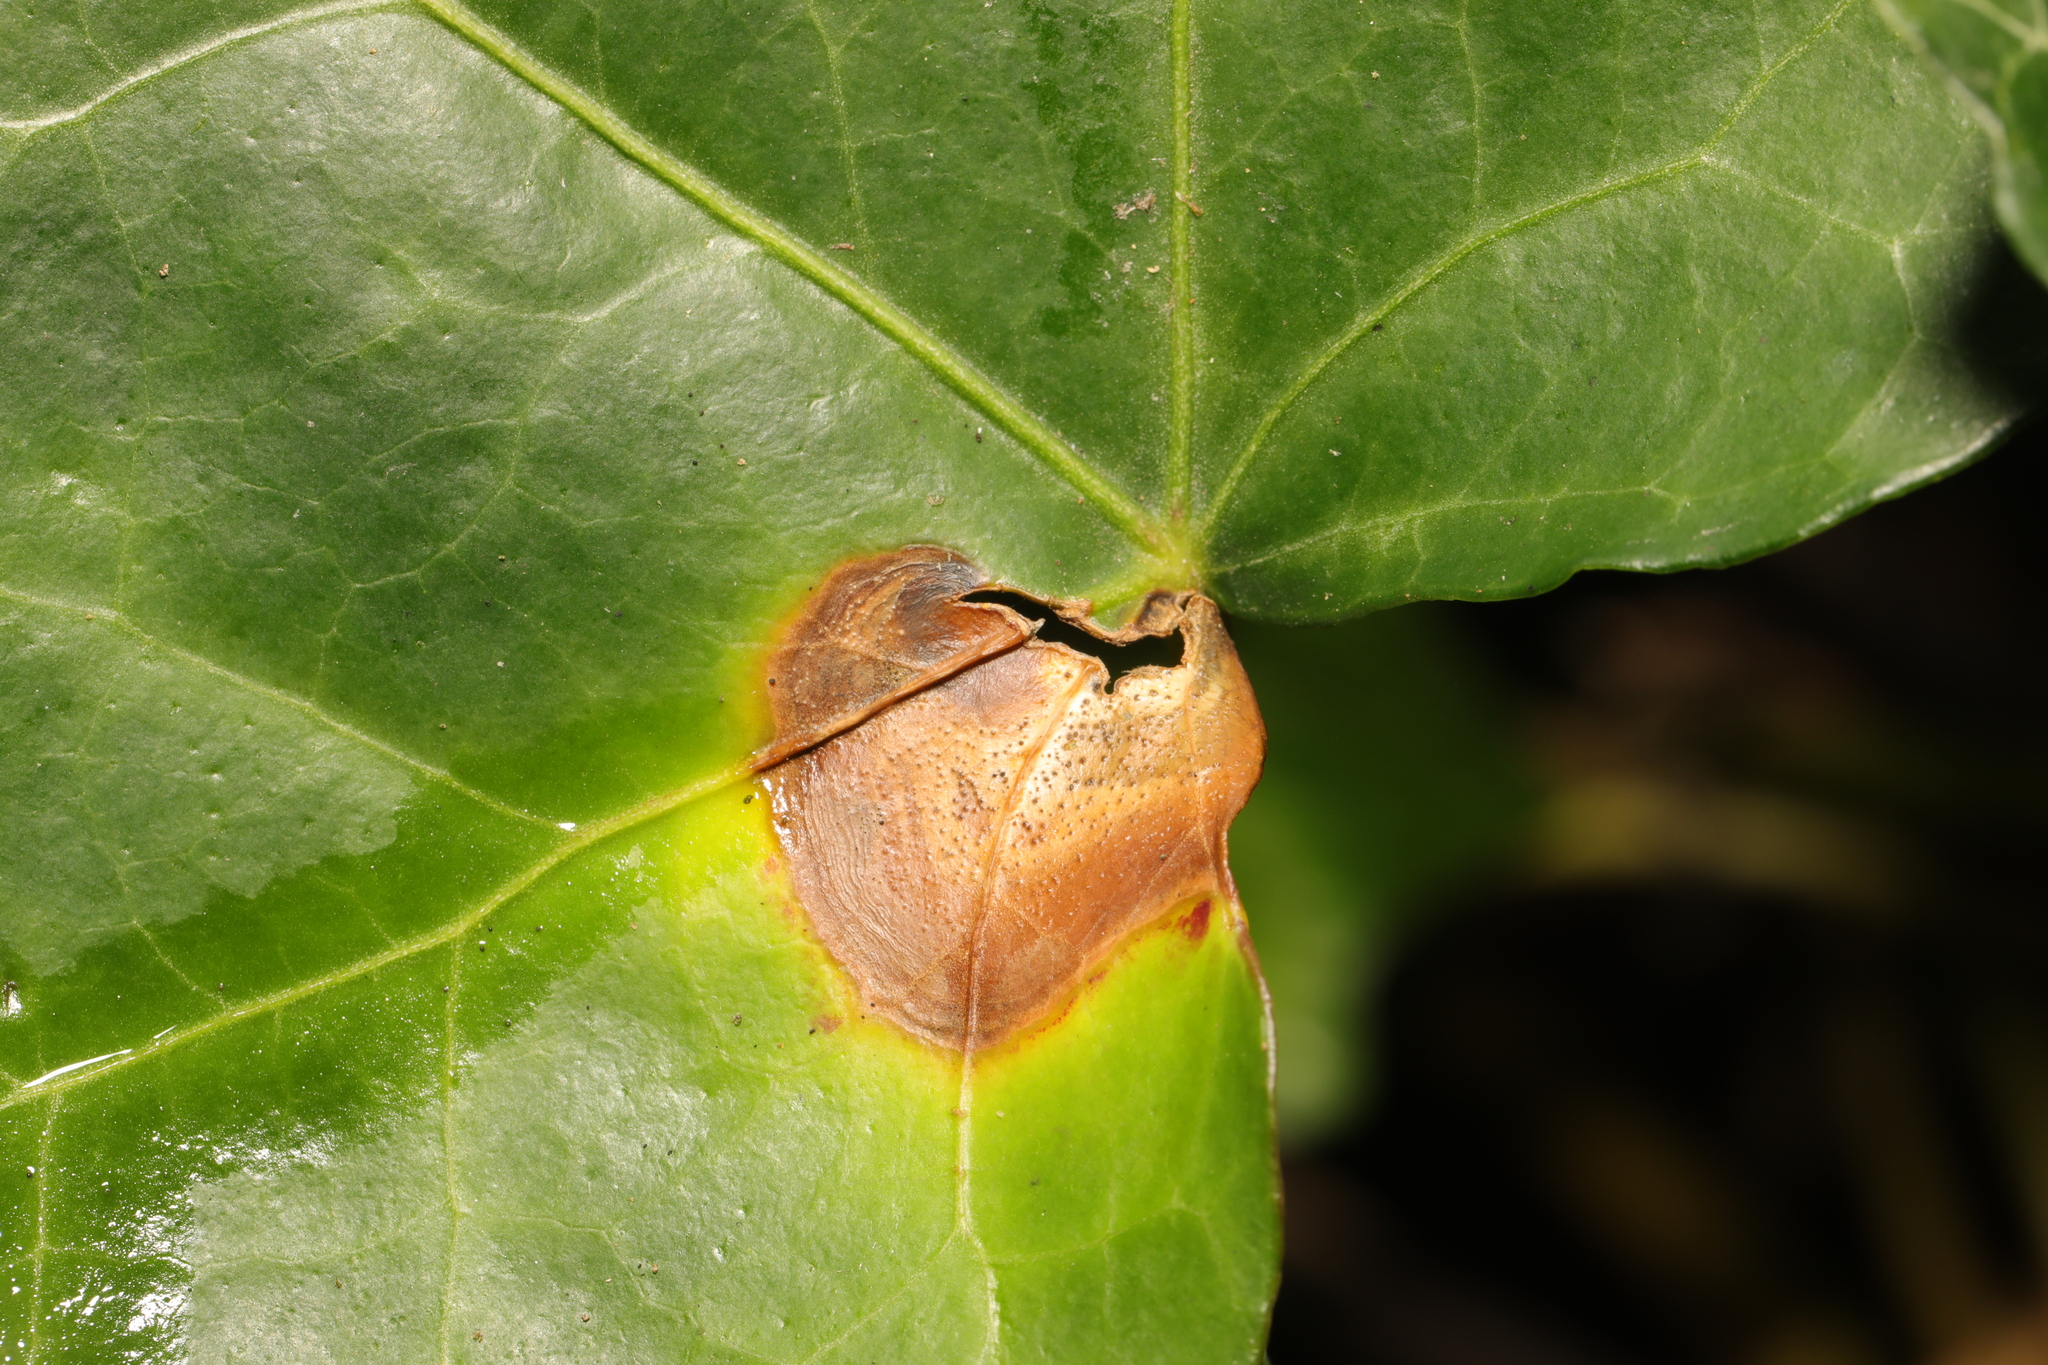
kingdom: Fungi
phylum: Ascomycota
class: Dothideomycetes
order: Pleosporales
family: Didymellaceae
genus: Boeremia
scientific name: Boeremia hedericola
